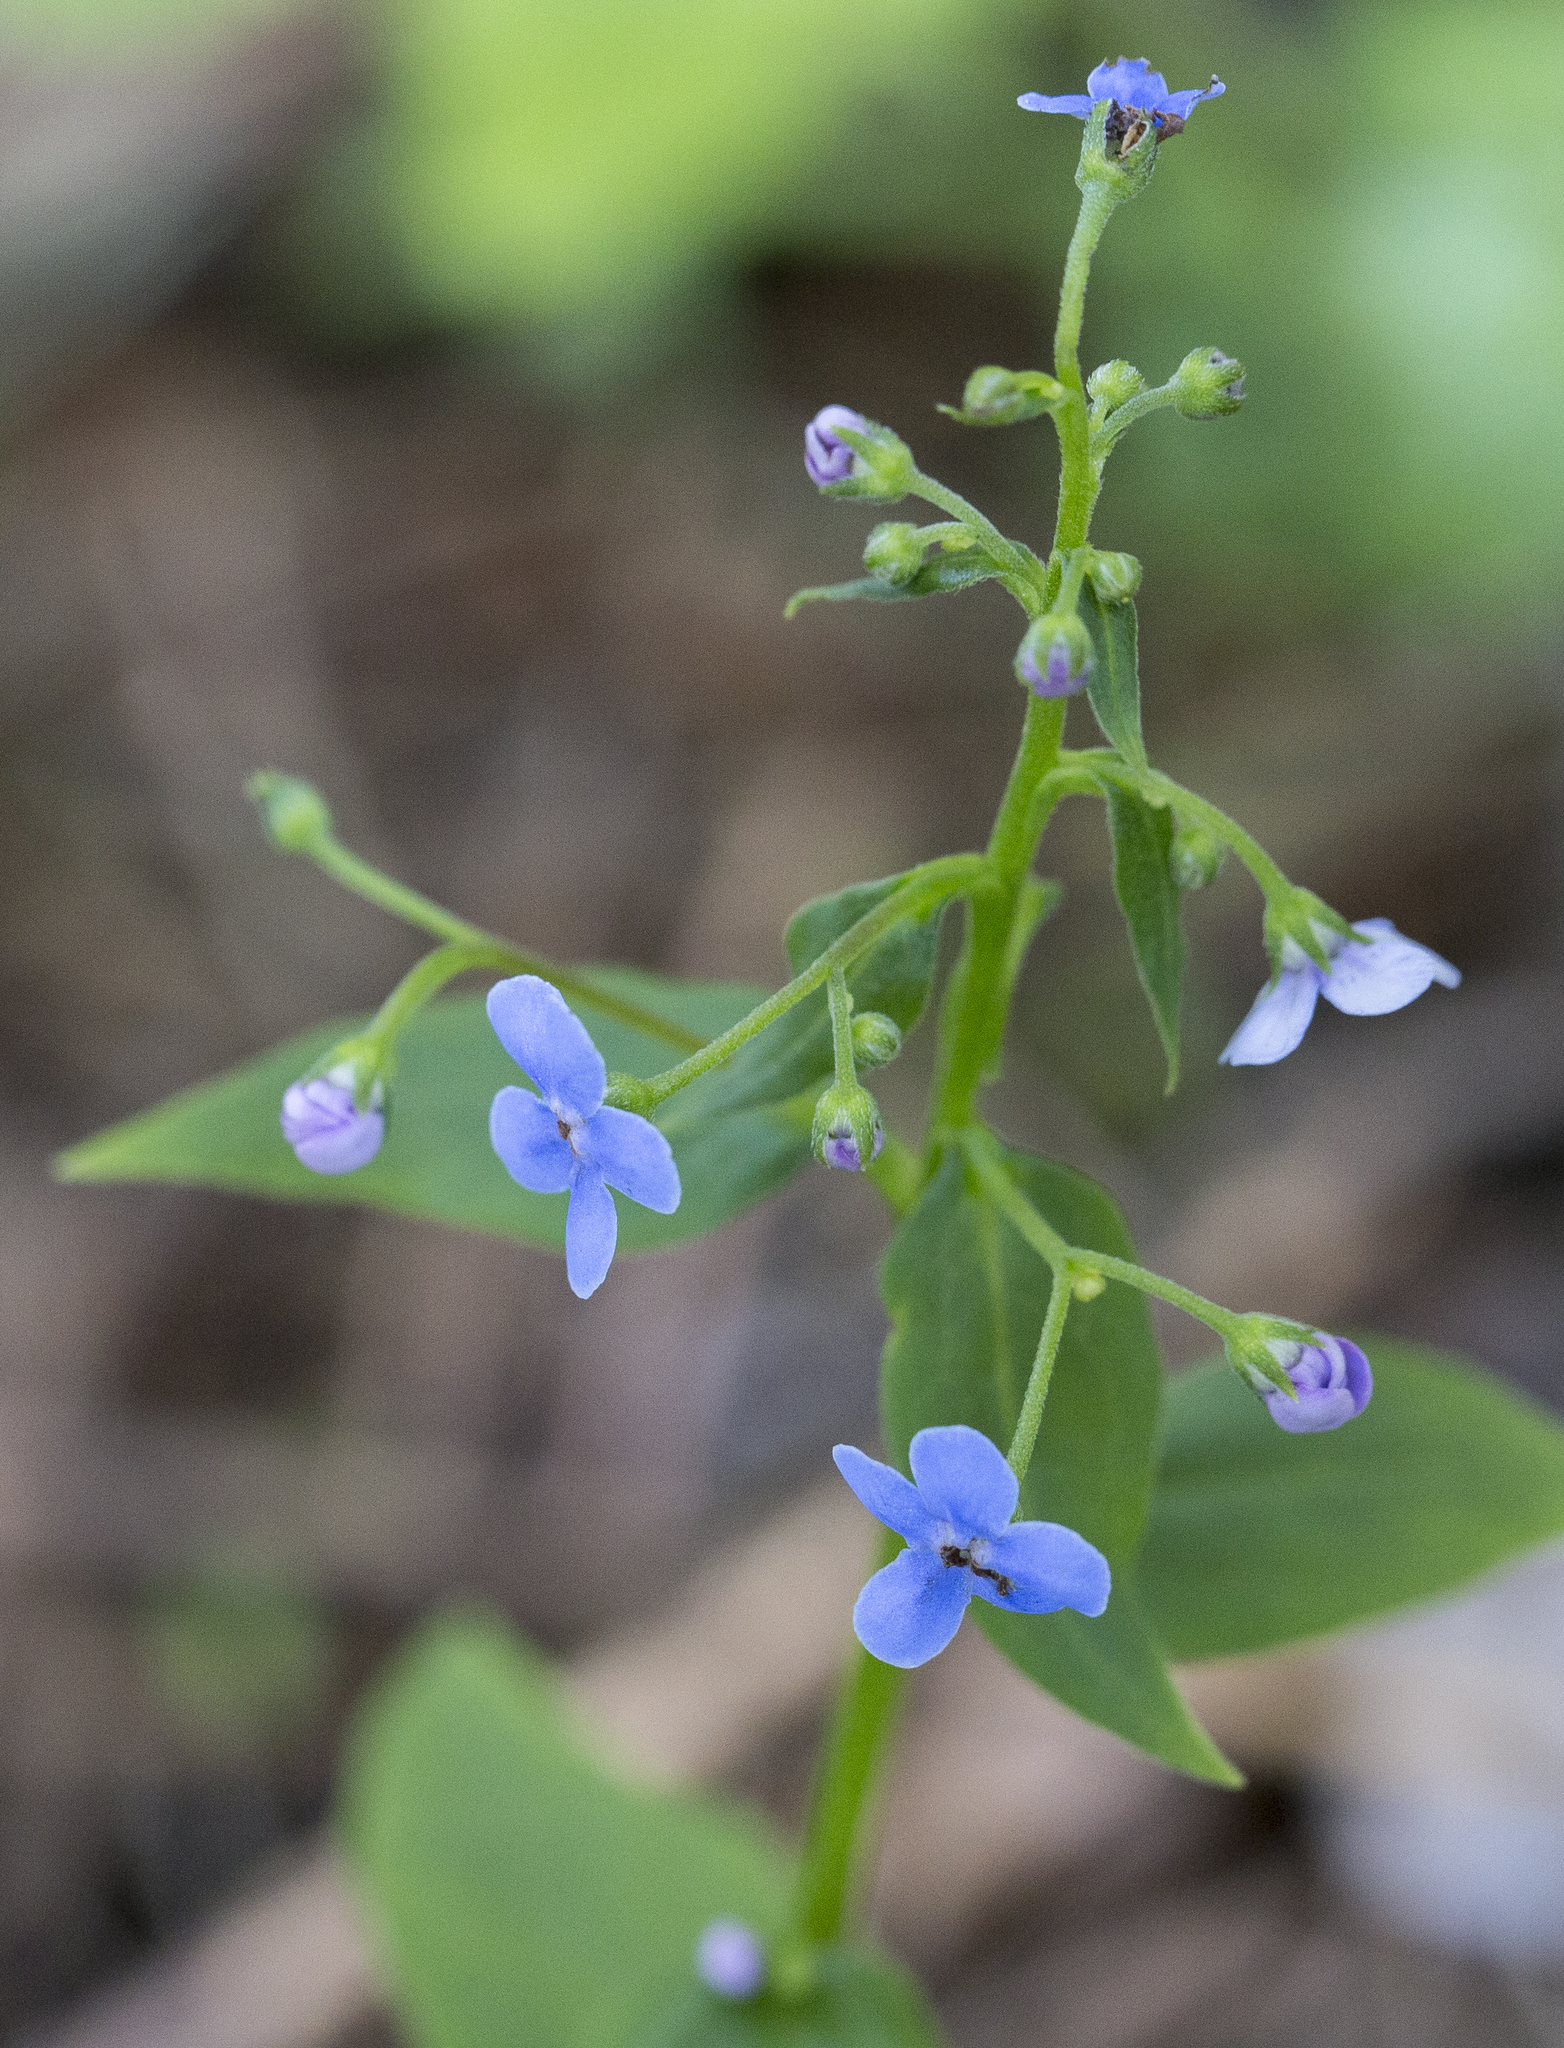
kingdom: Plantae
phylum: Tracheophyta
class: Magnoliopsida
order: Boraginales
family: Boraginaceae
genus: Brunnera
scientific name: Brunnera sibirica
